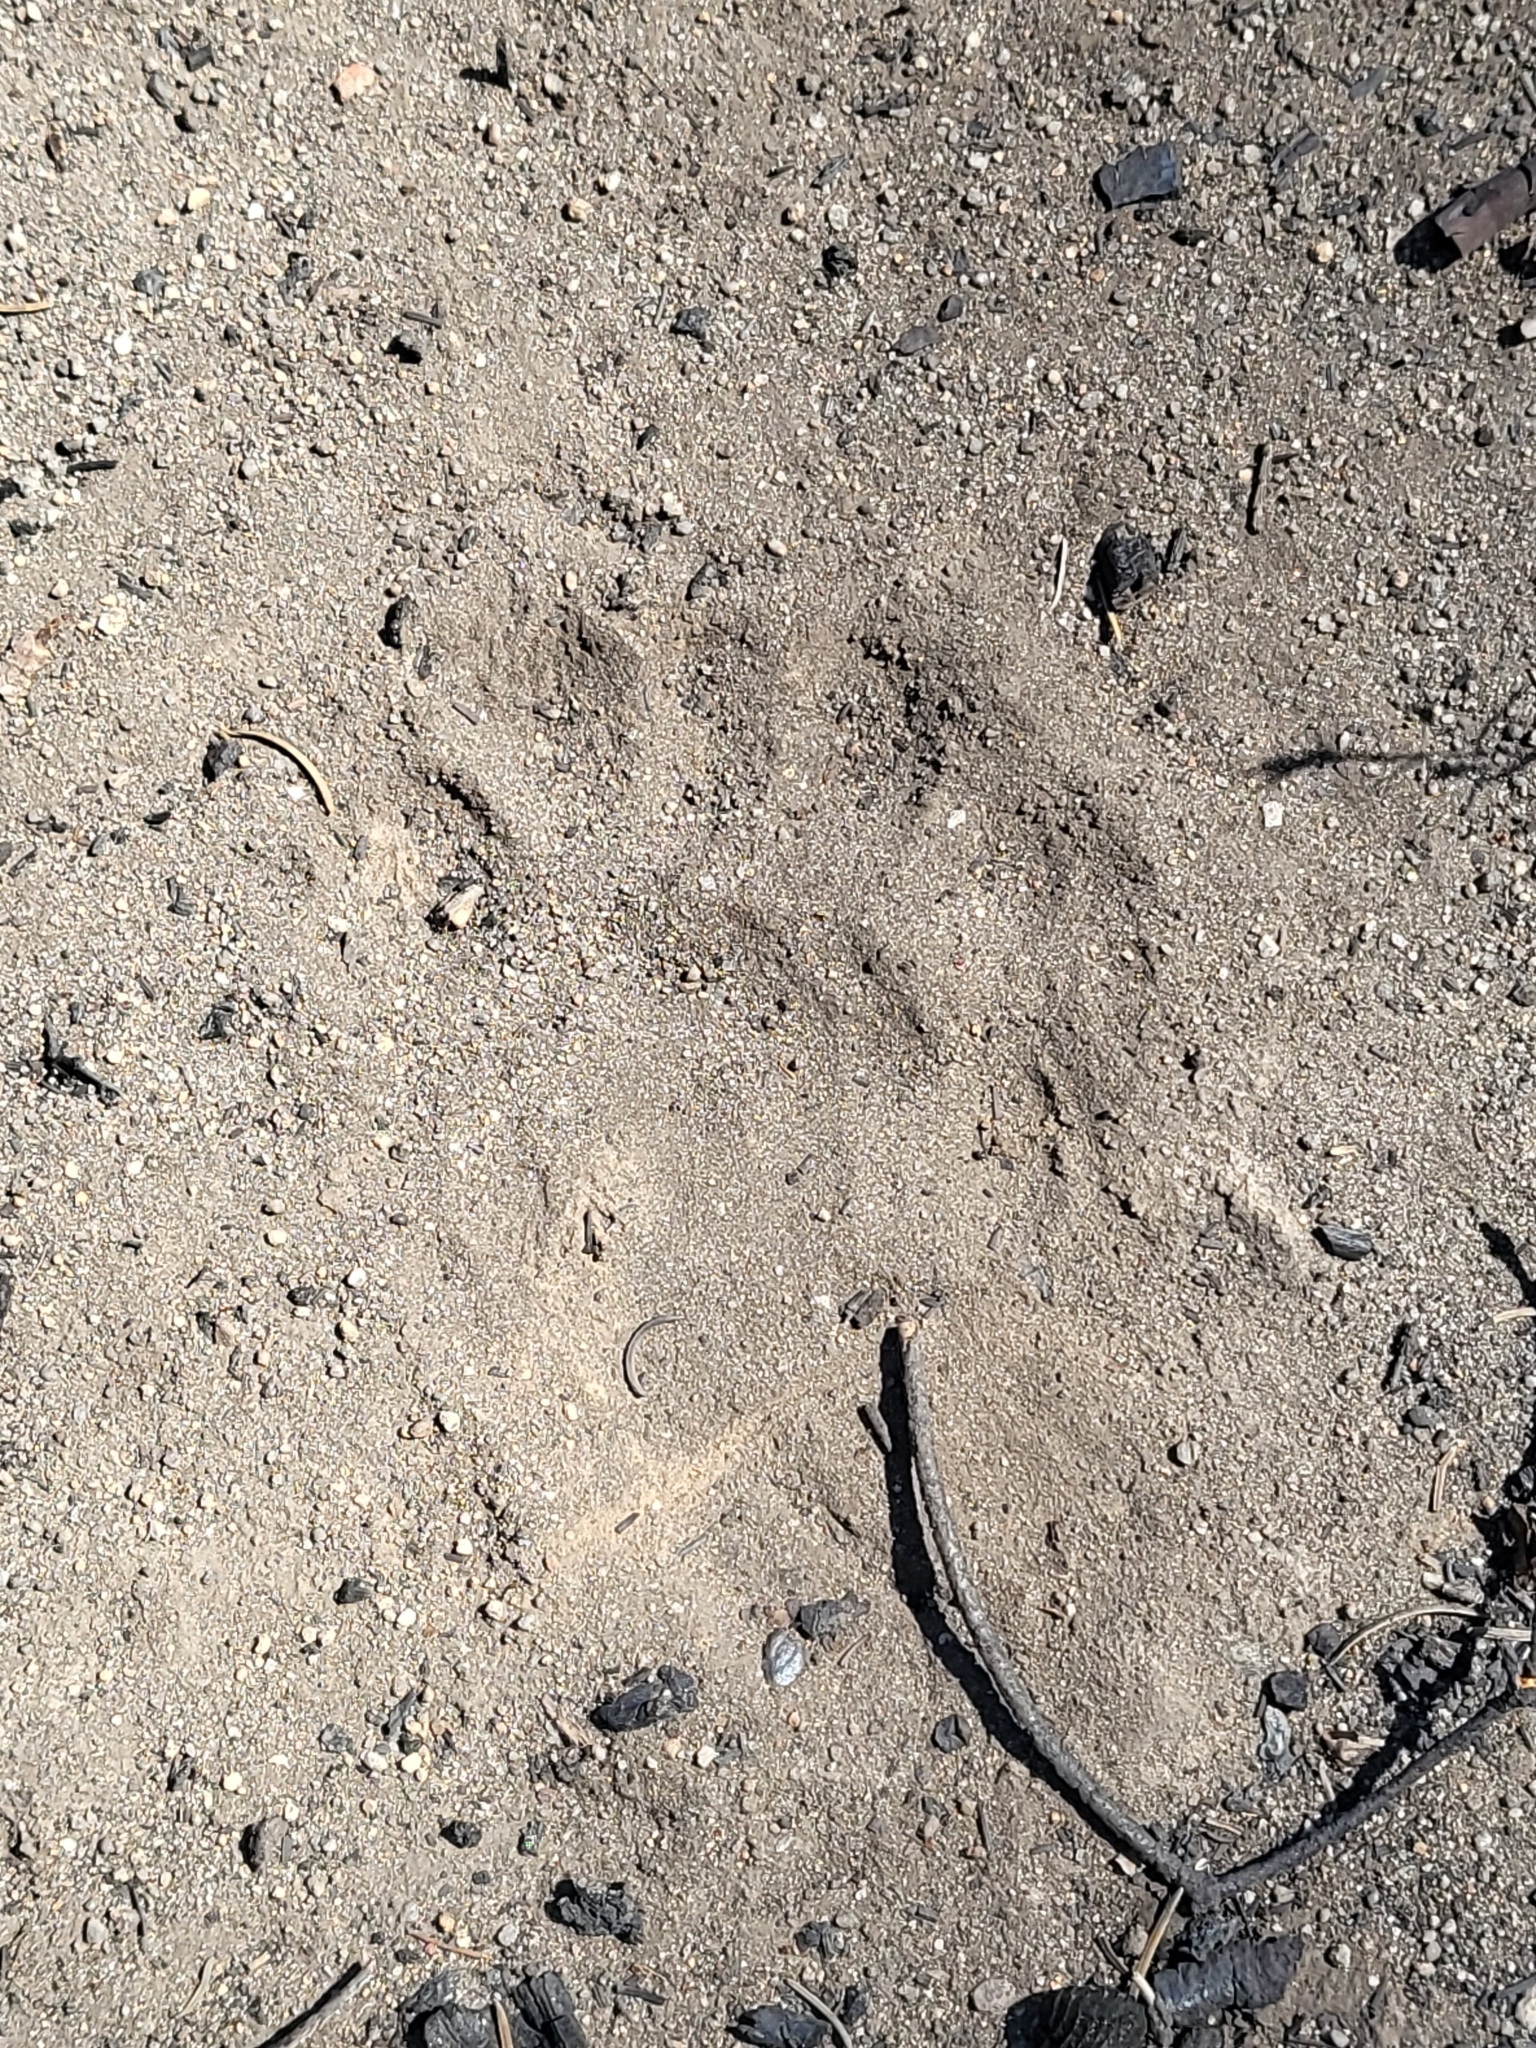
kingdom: Animalia
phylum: Chordata
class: Mammalia
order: Carnivora
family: Ursidae
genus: Ursus
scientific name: Ursus americanus
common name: American black bear
